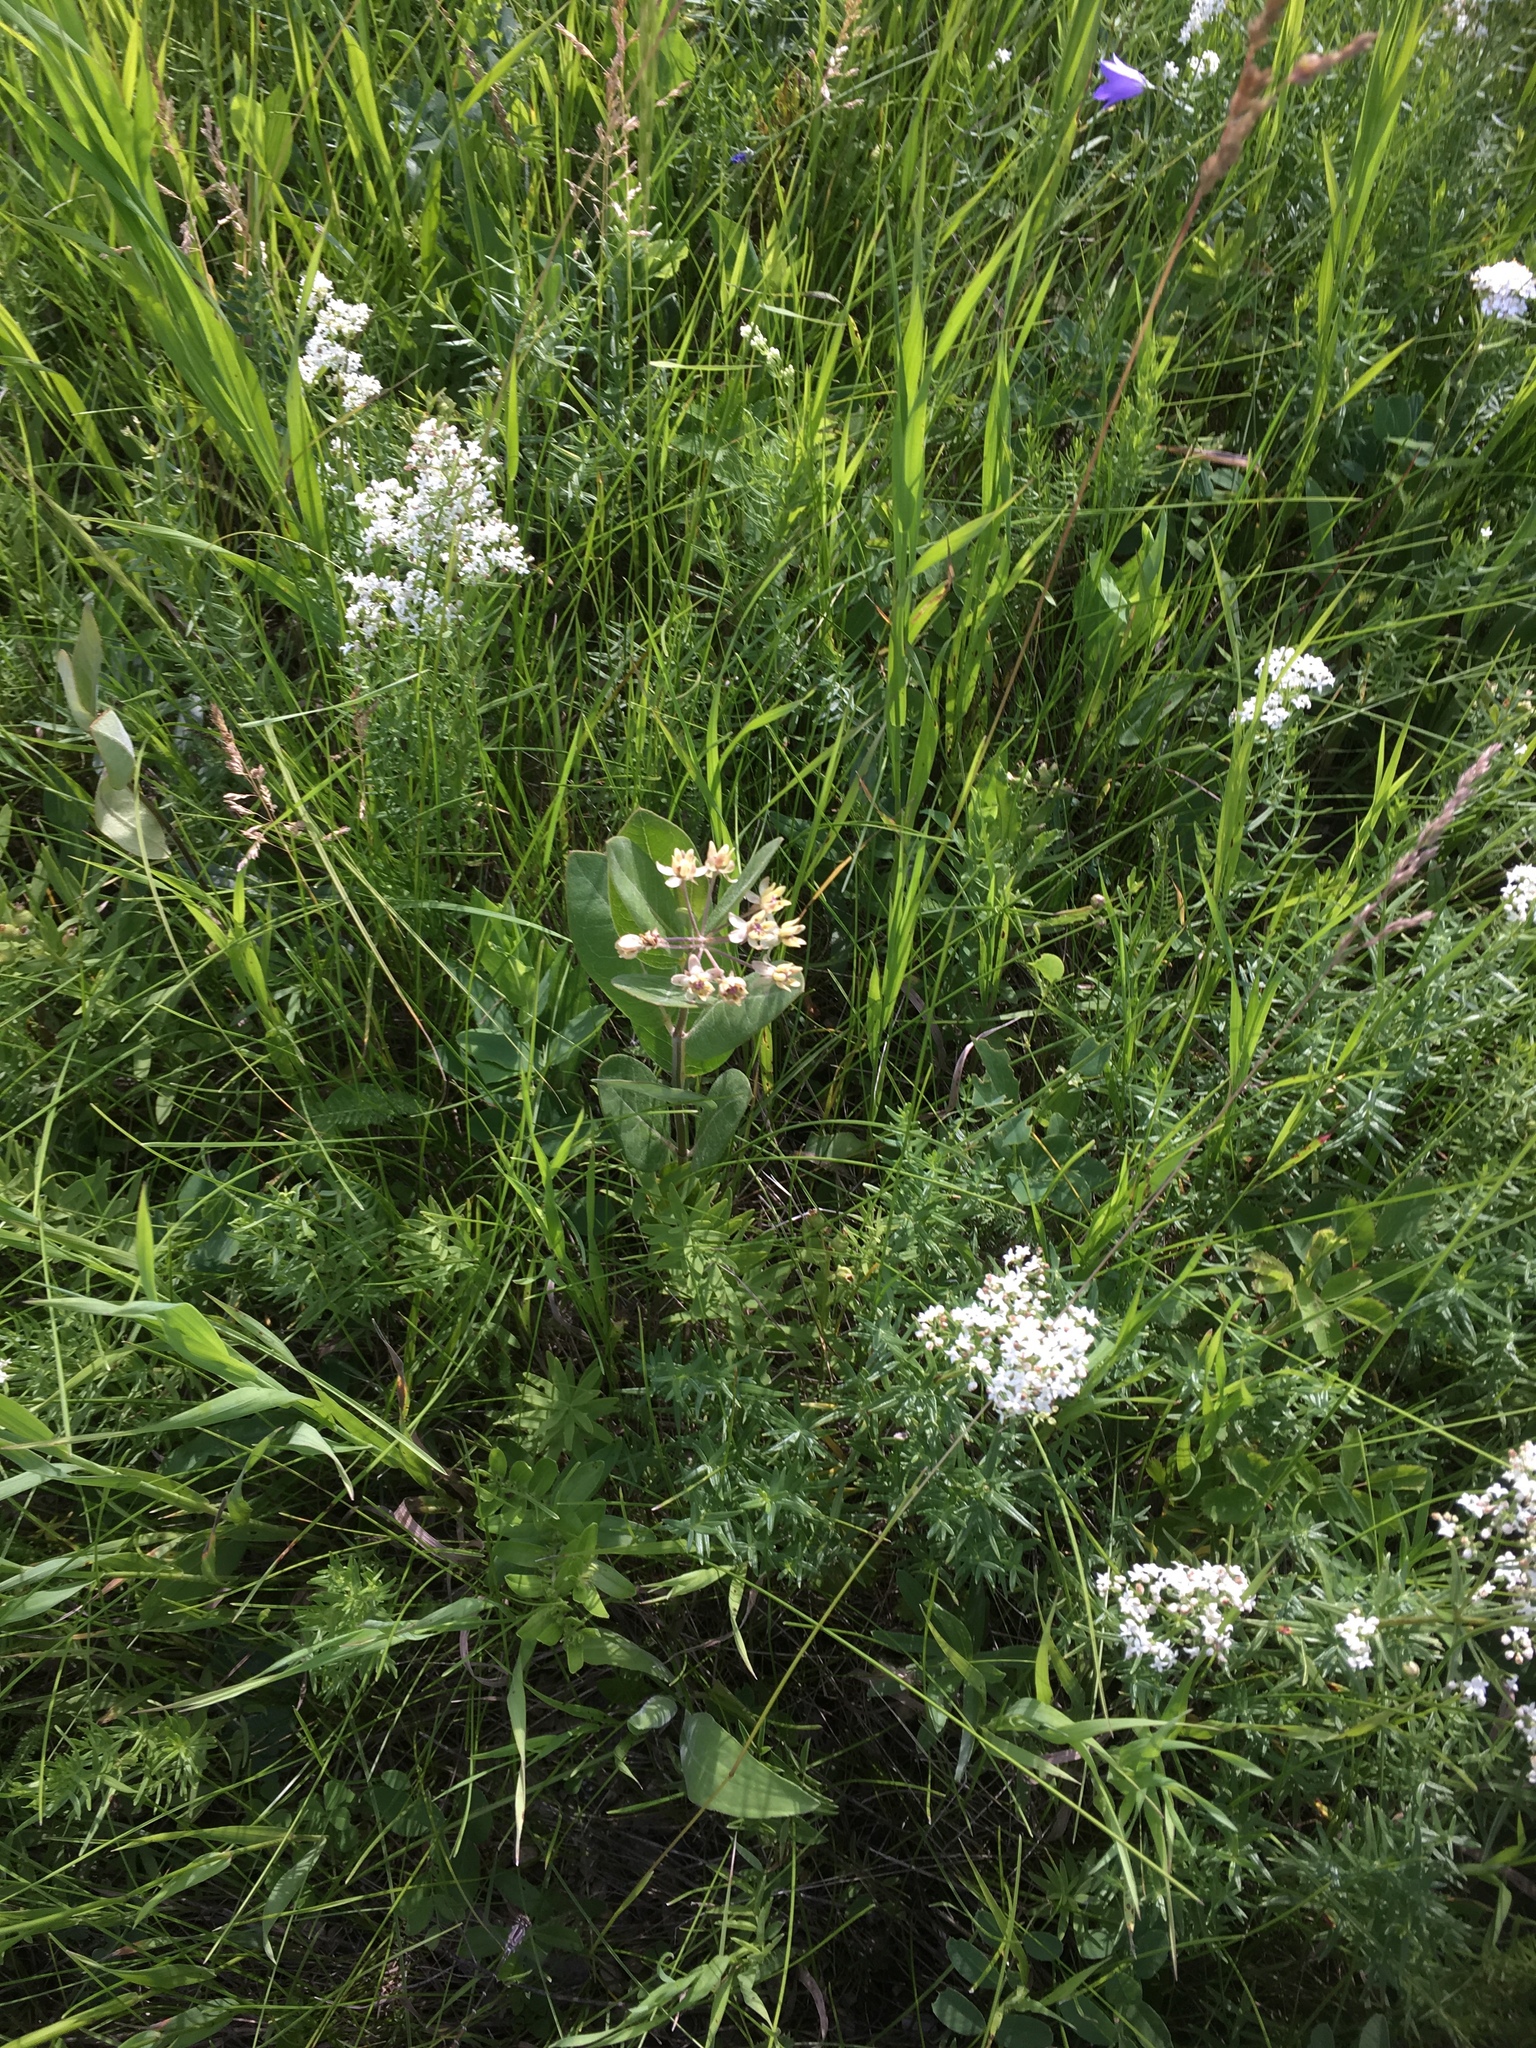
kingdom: Plantae
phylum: Tracheophyta
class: Magnoliopsida
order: Gentianales
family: Apocynaceae
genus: Asclepias
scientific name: Asclepias ovalifolia
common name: Dwarf milkweed
